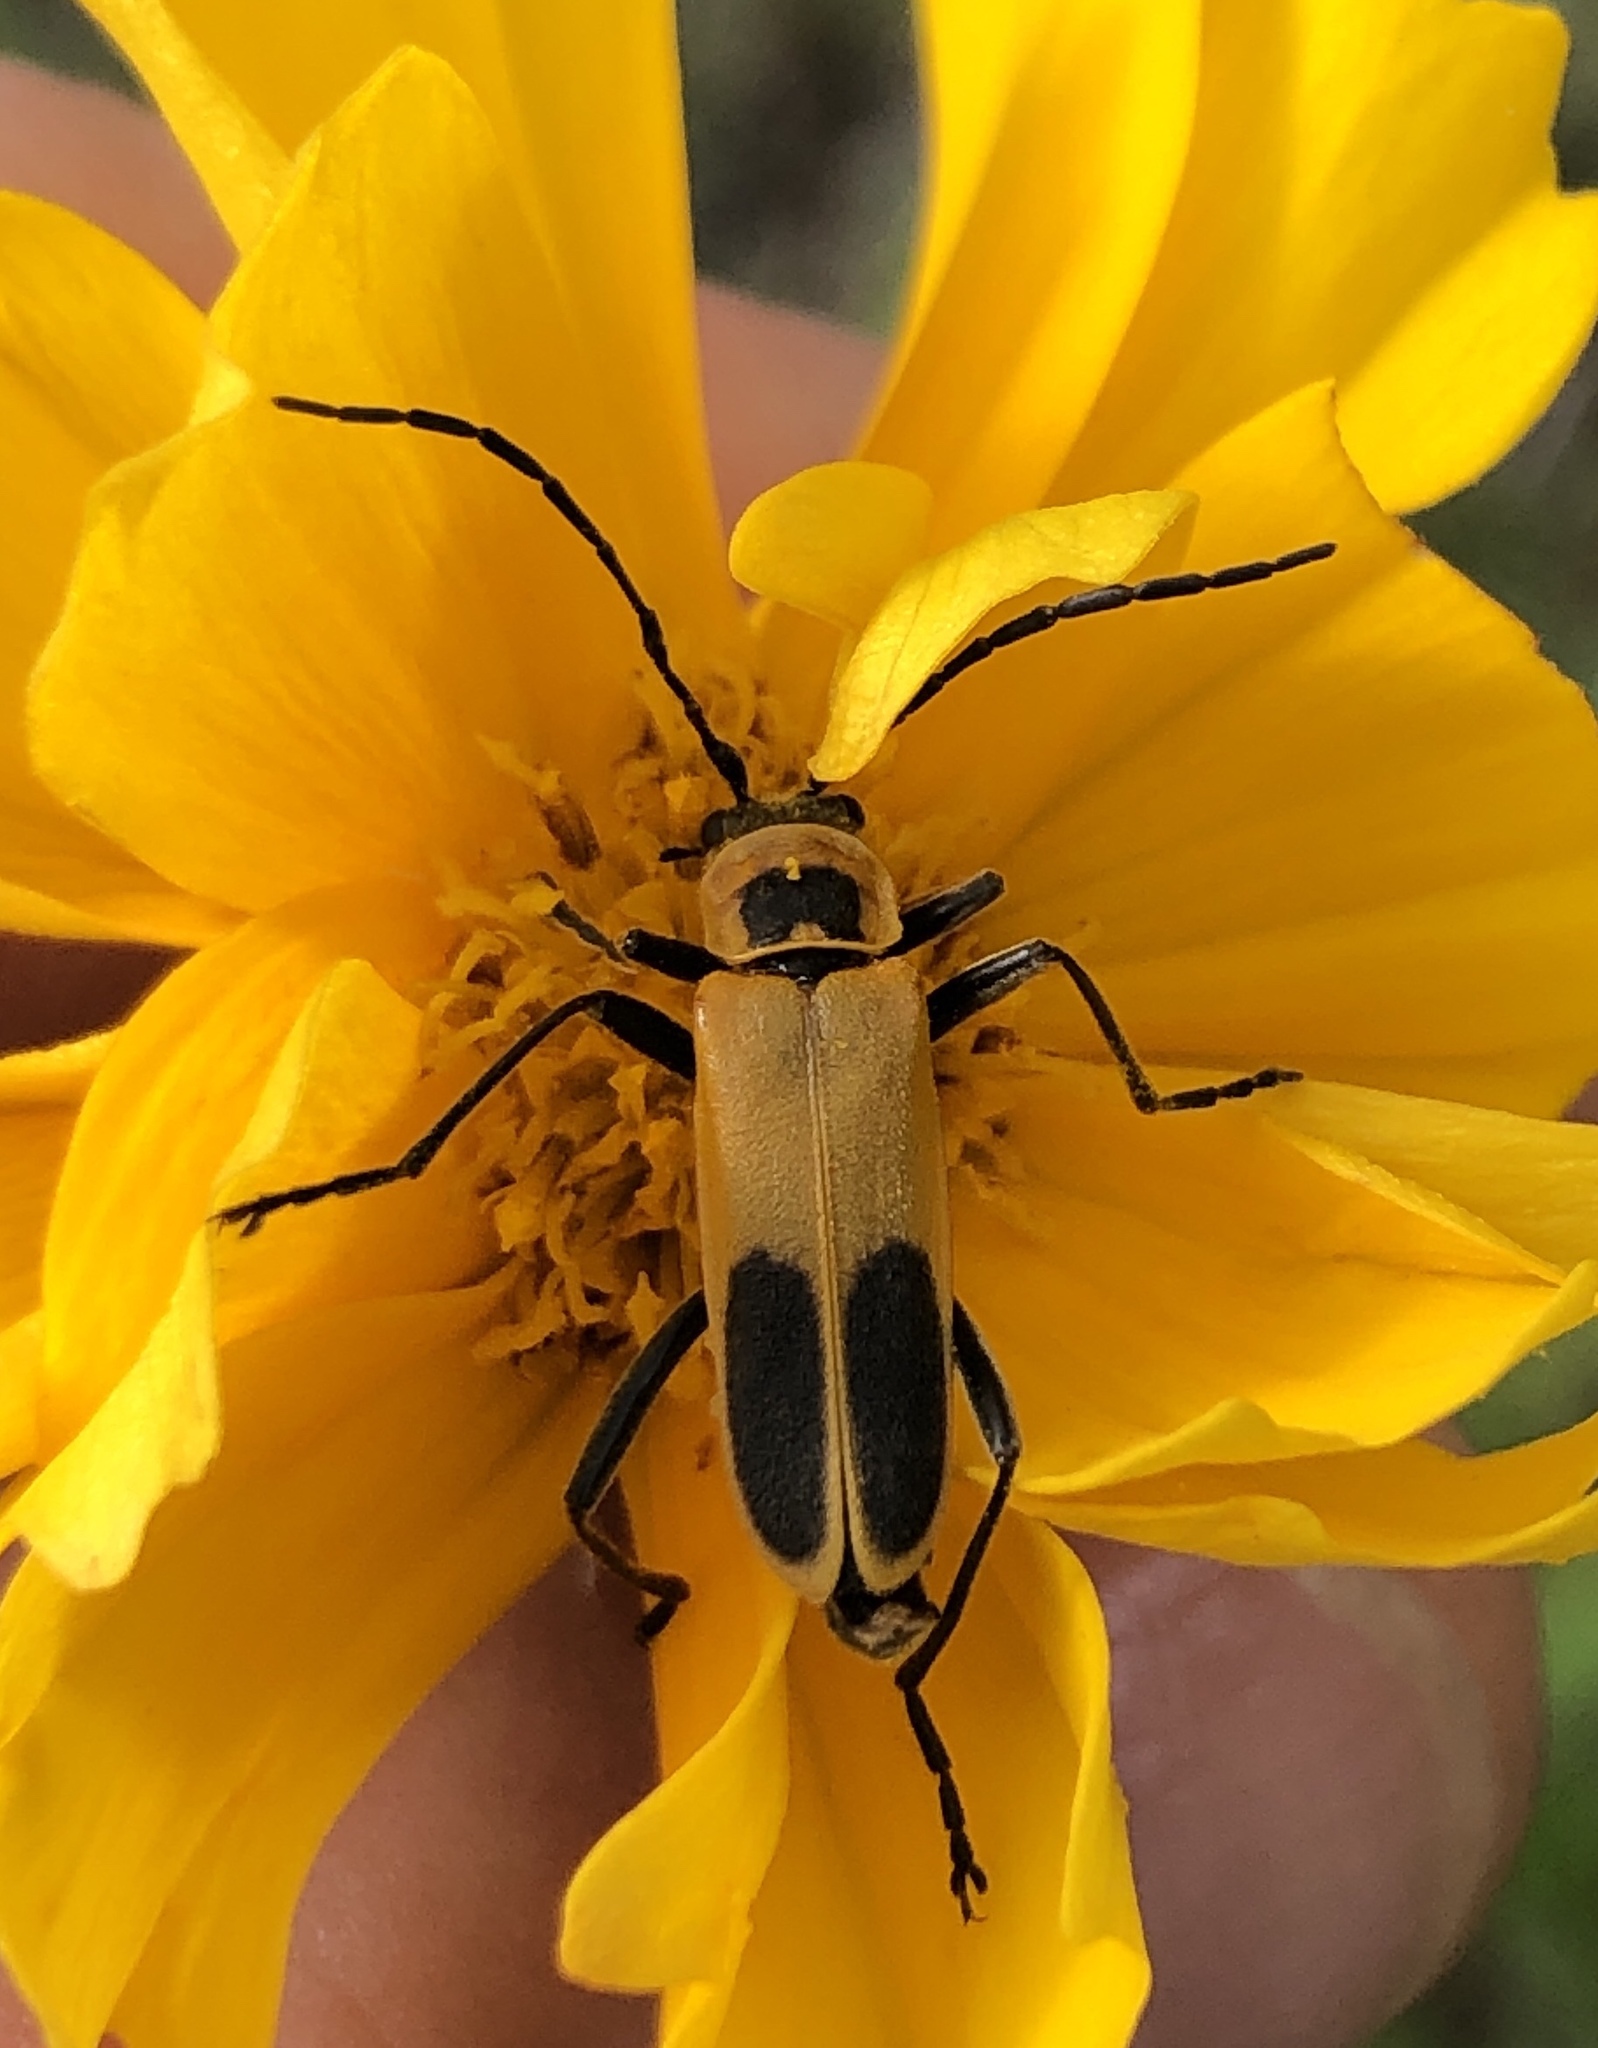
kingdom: Animalia
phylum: Arthropoda
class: Insecta
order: Coleoptera
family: Cantharidae
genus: Chauliognathus
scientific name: Chauliognathus pensylvanicus
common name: Goldenrod soldier beetle
